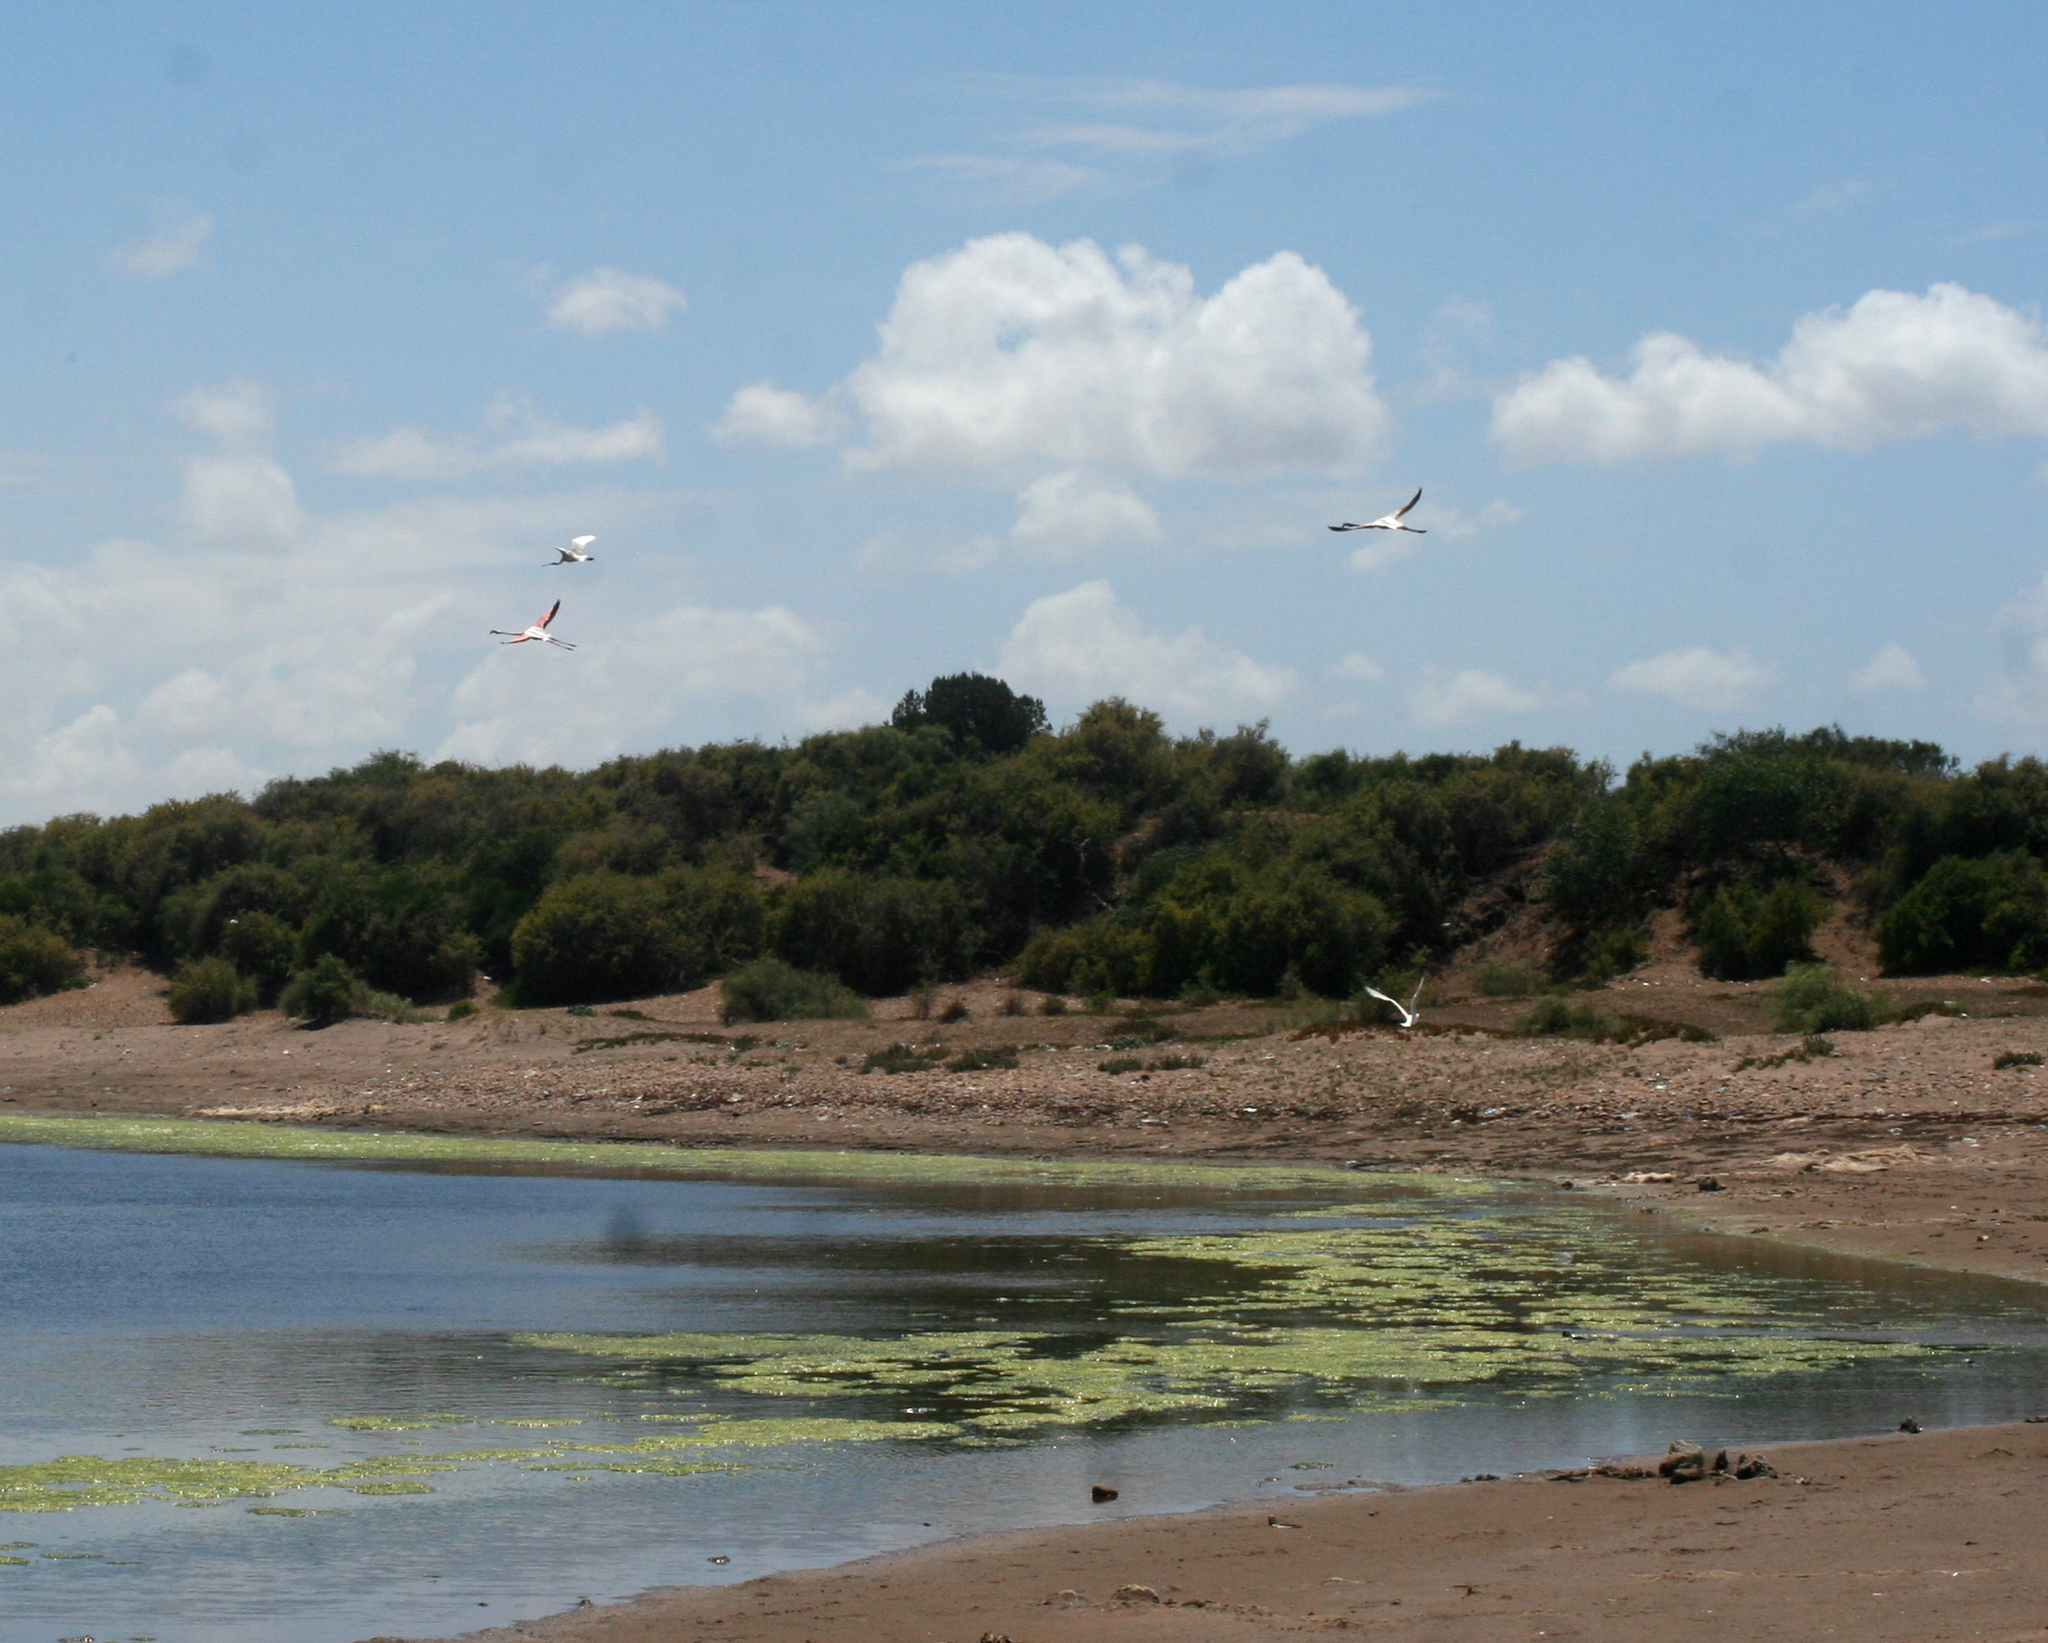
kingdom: Animalia
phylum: Chordata
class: Aves
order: Pelecaniformes
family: Threskiornithidae
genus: Platalea
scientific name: Platalea leucorodia
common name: Eurasian spoonbill
